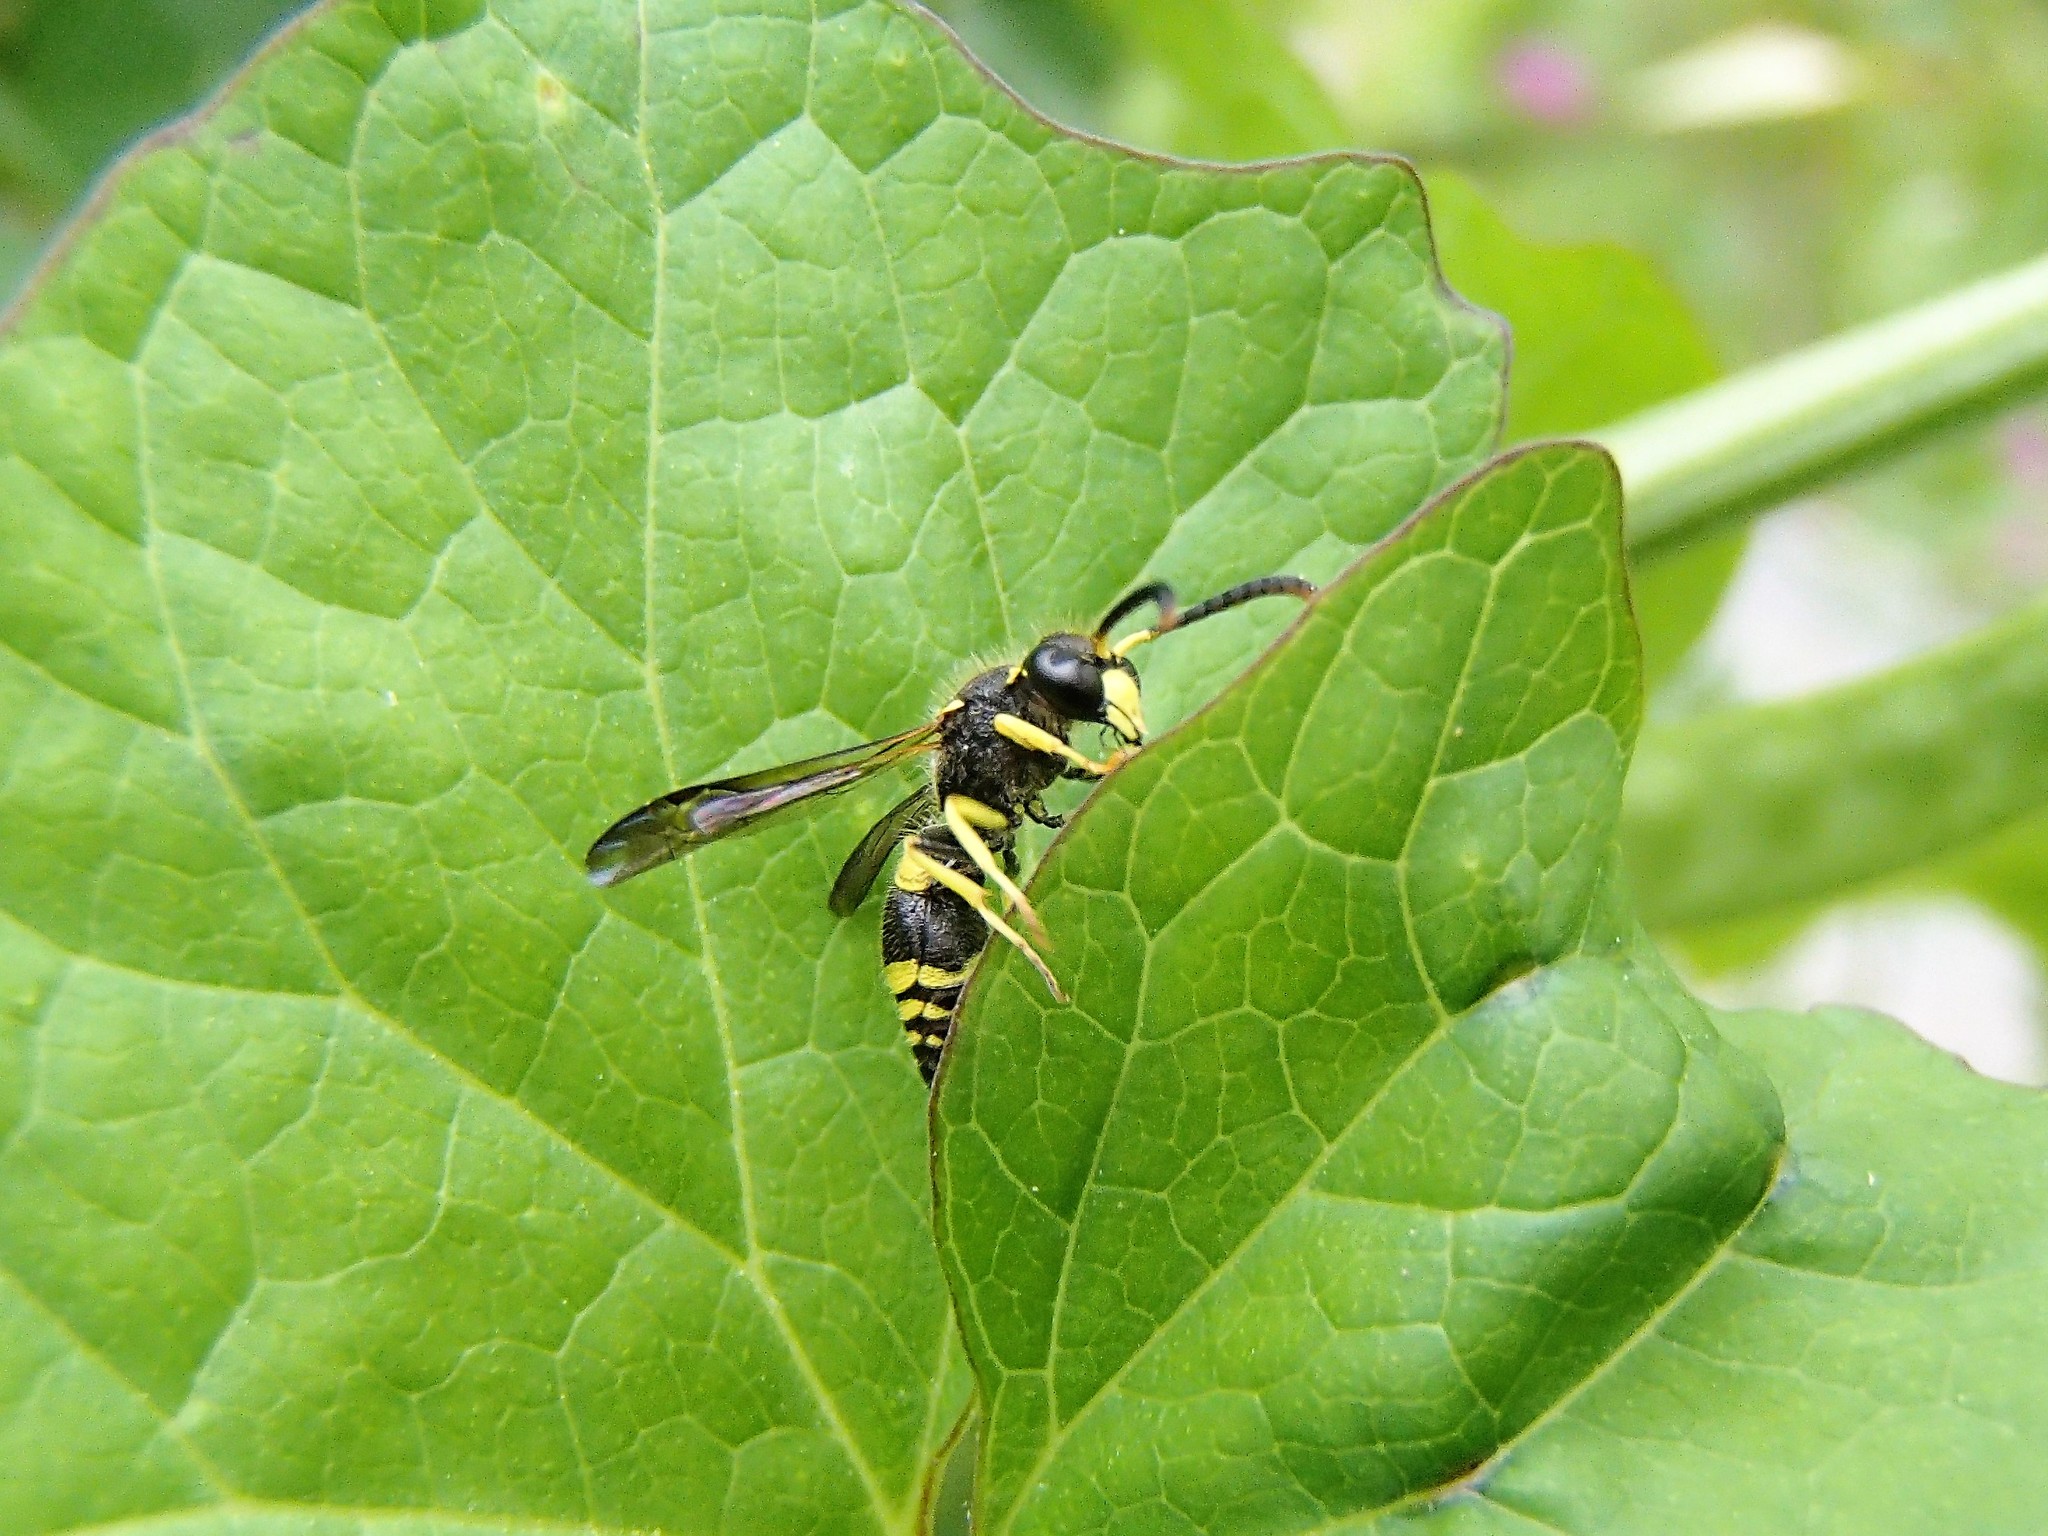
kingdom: Animalia
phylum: Arthropoda
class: Insecta
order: Hymenoptera
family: Vespidae
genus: Ancistrocerus
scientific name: Ancistrocerus gazella
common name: European tube wasp
